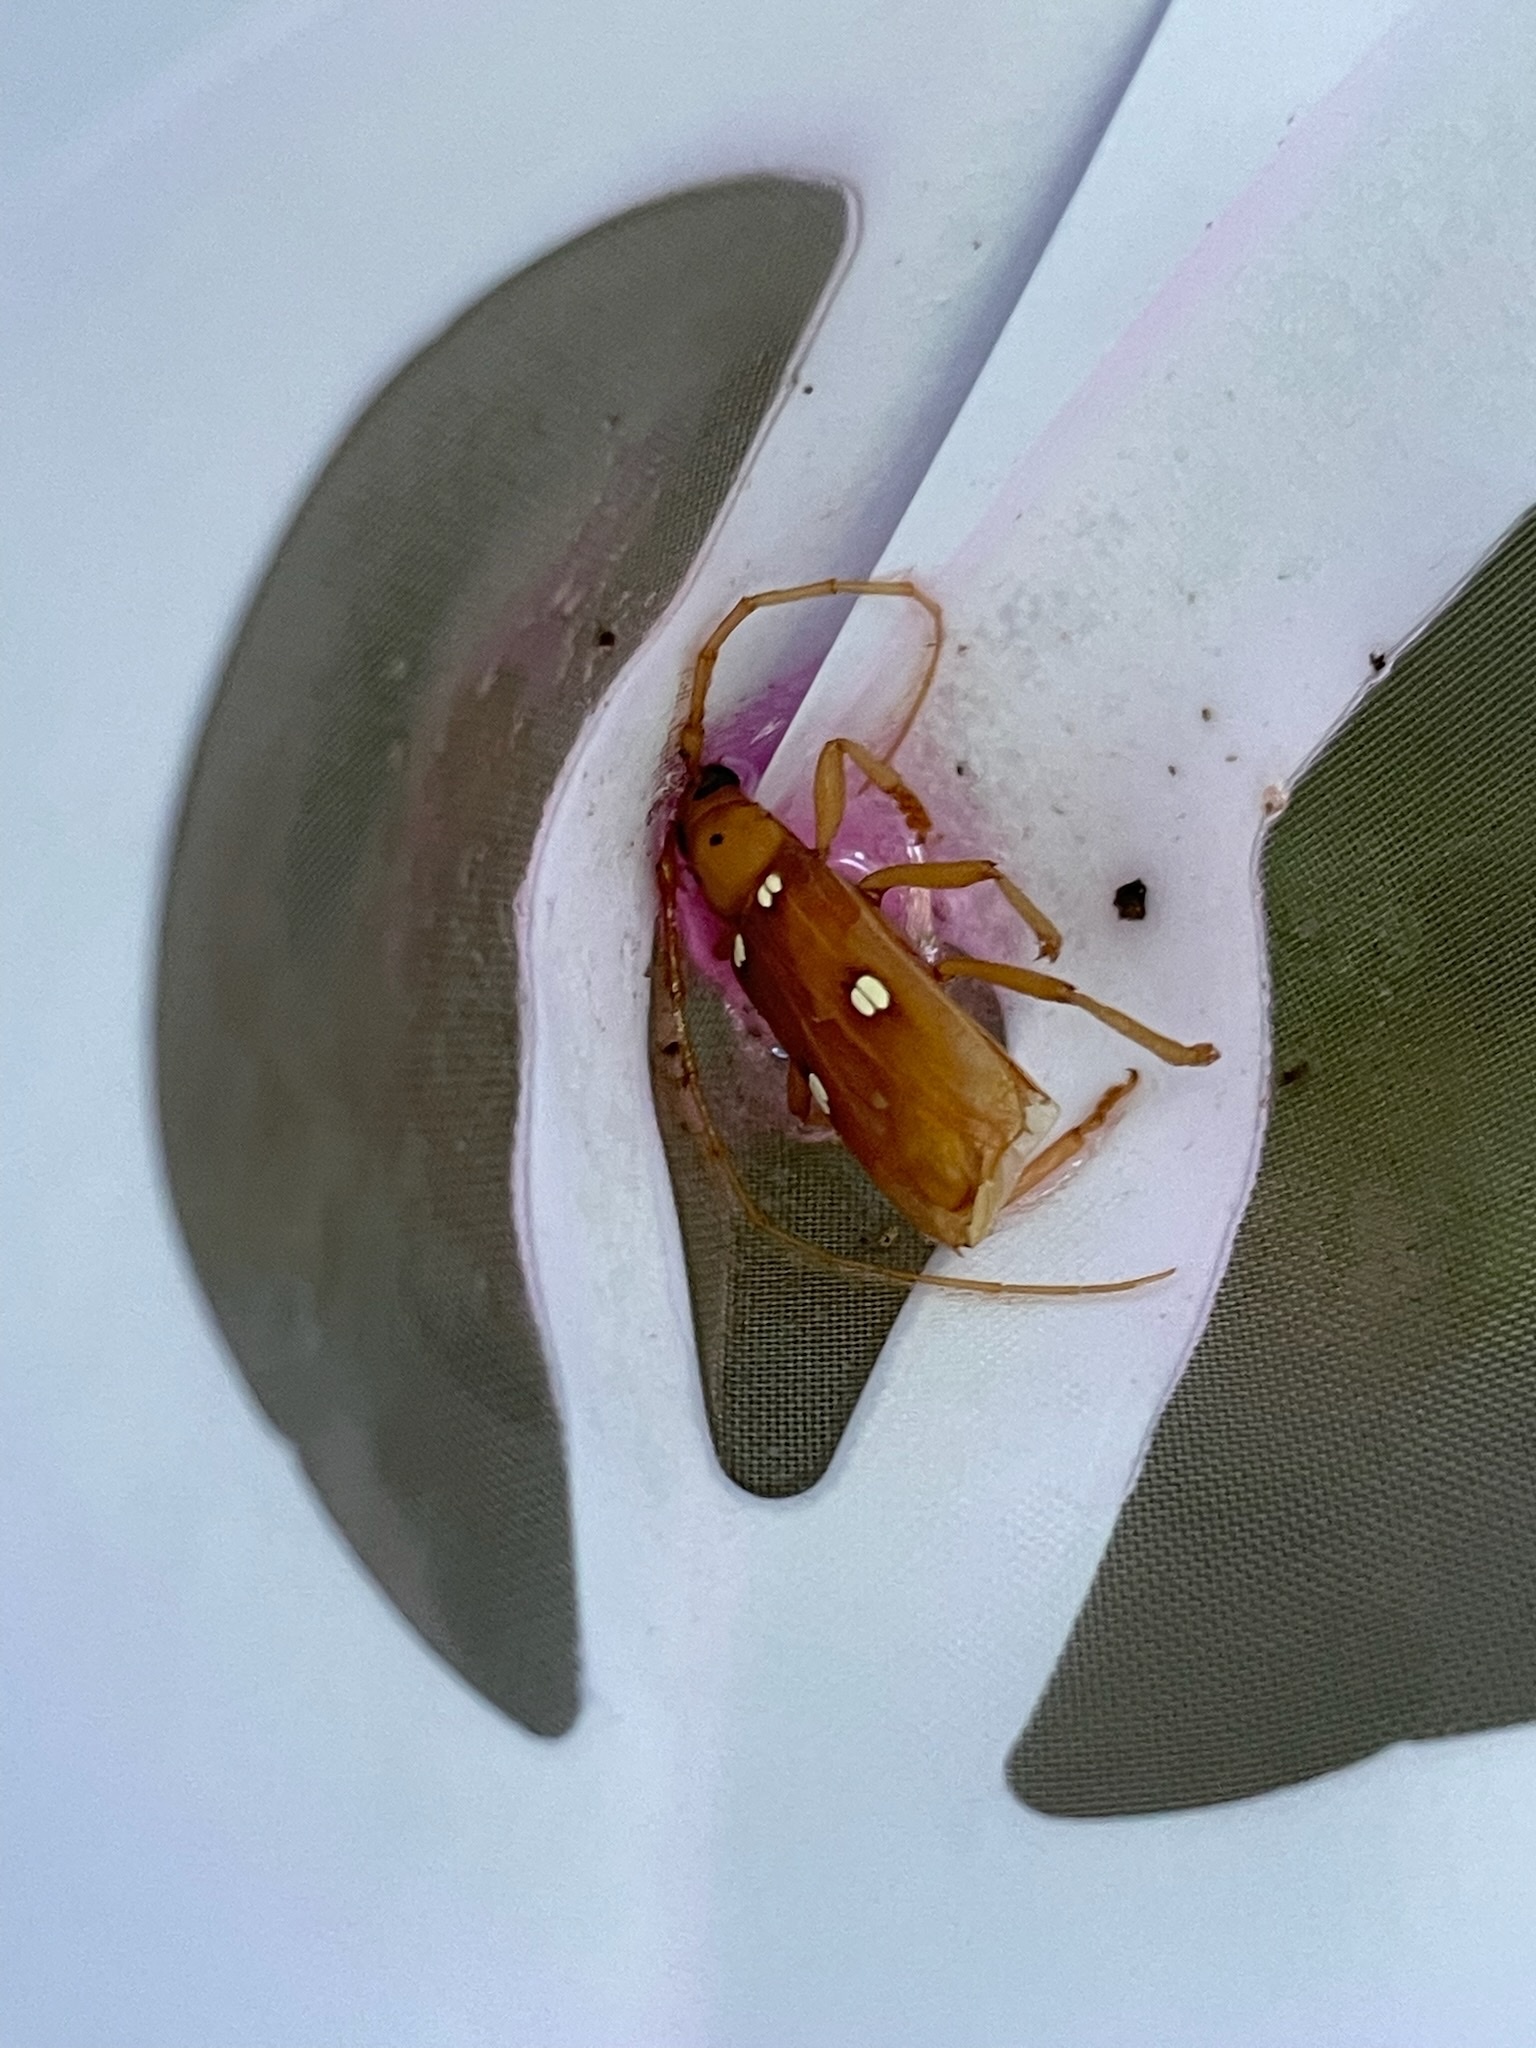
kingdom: Animalia
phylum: Arthropoda
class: Insecta
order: Coleoptera
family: Cerambycidae
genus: Eburia
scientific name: Eburia quadrigeminata
